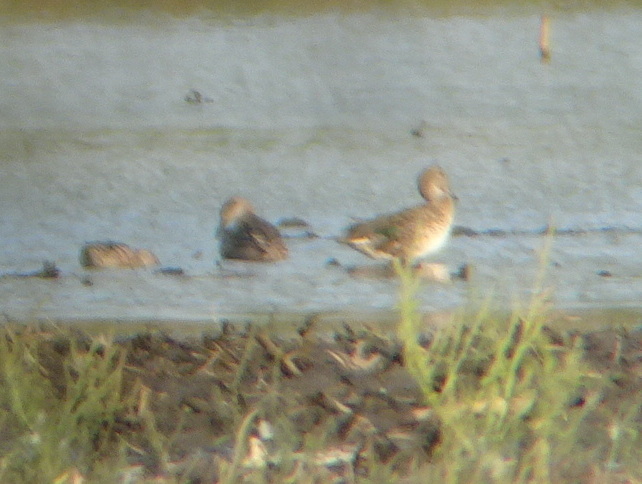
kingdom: Animalia
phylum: Chordata
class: Aves
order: Anseriformes
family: Anatidae
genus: Anas
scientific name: Anas crecca
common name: Eurasian teal
